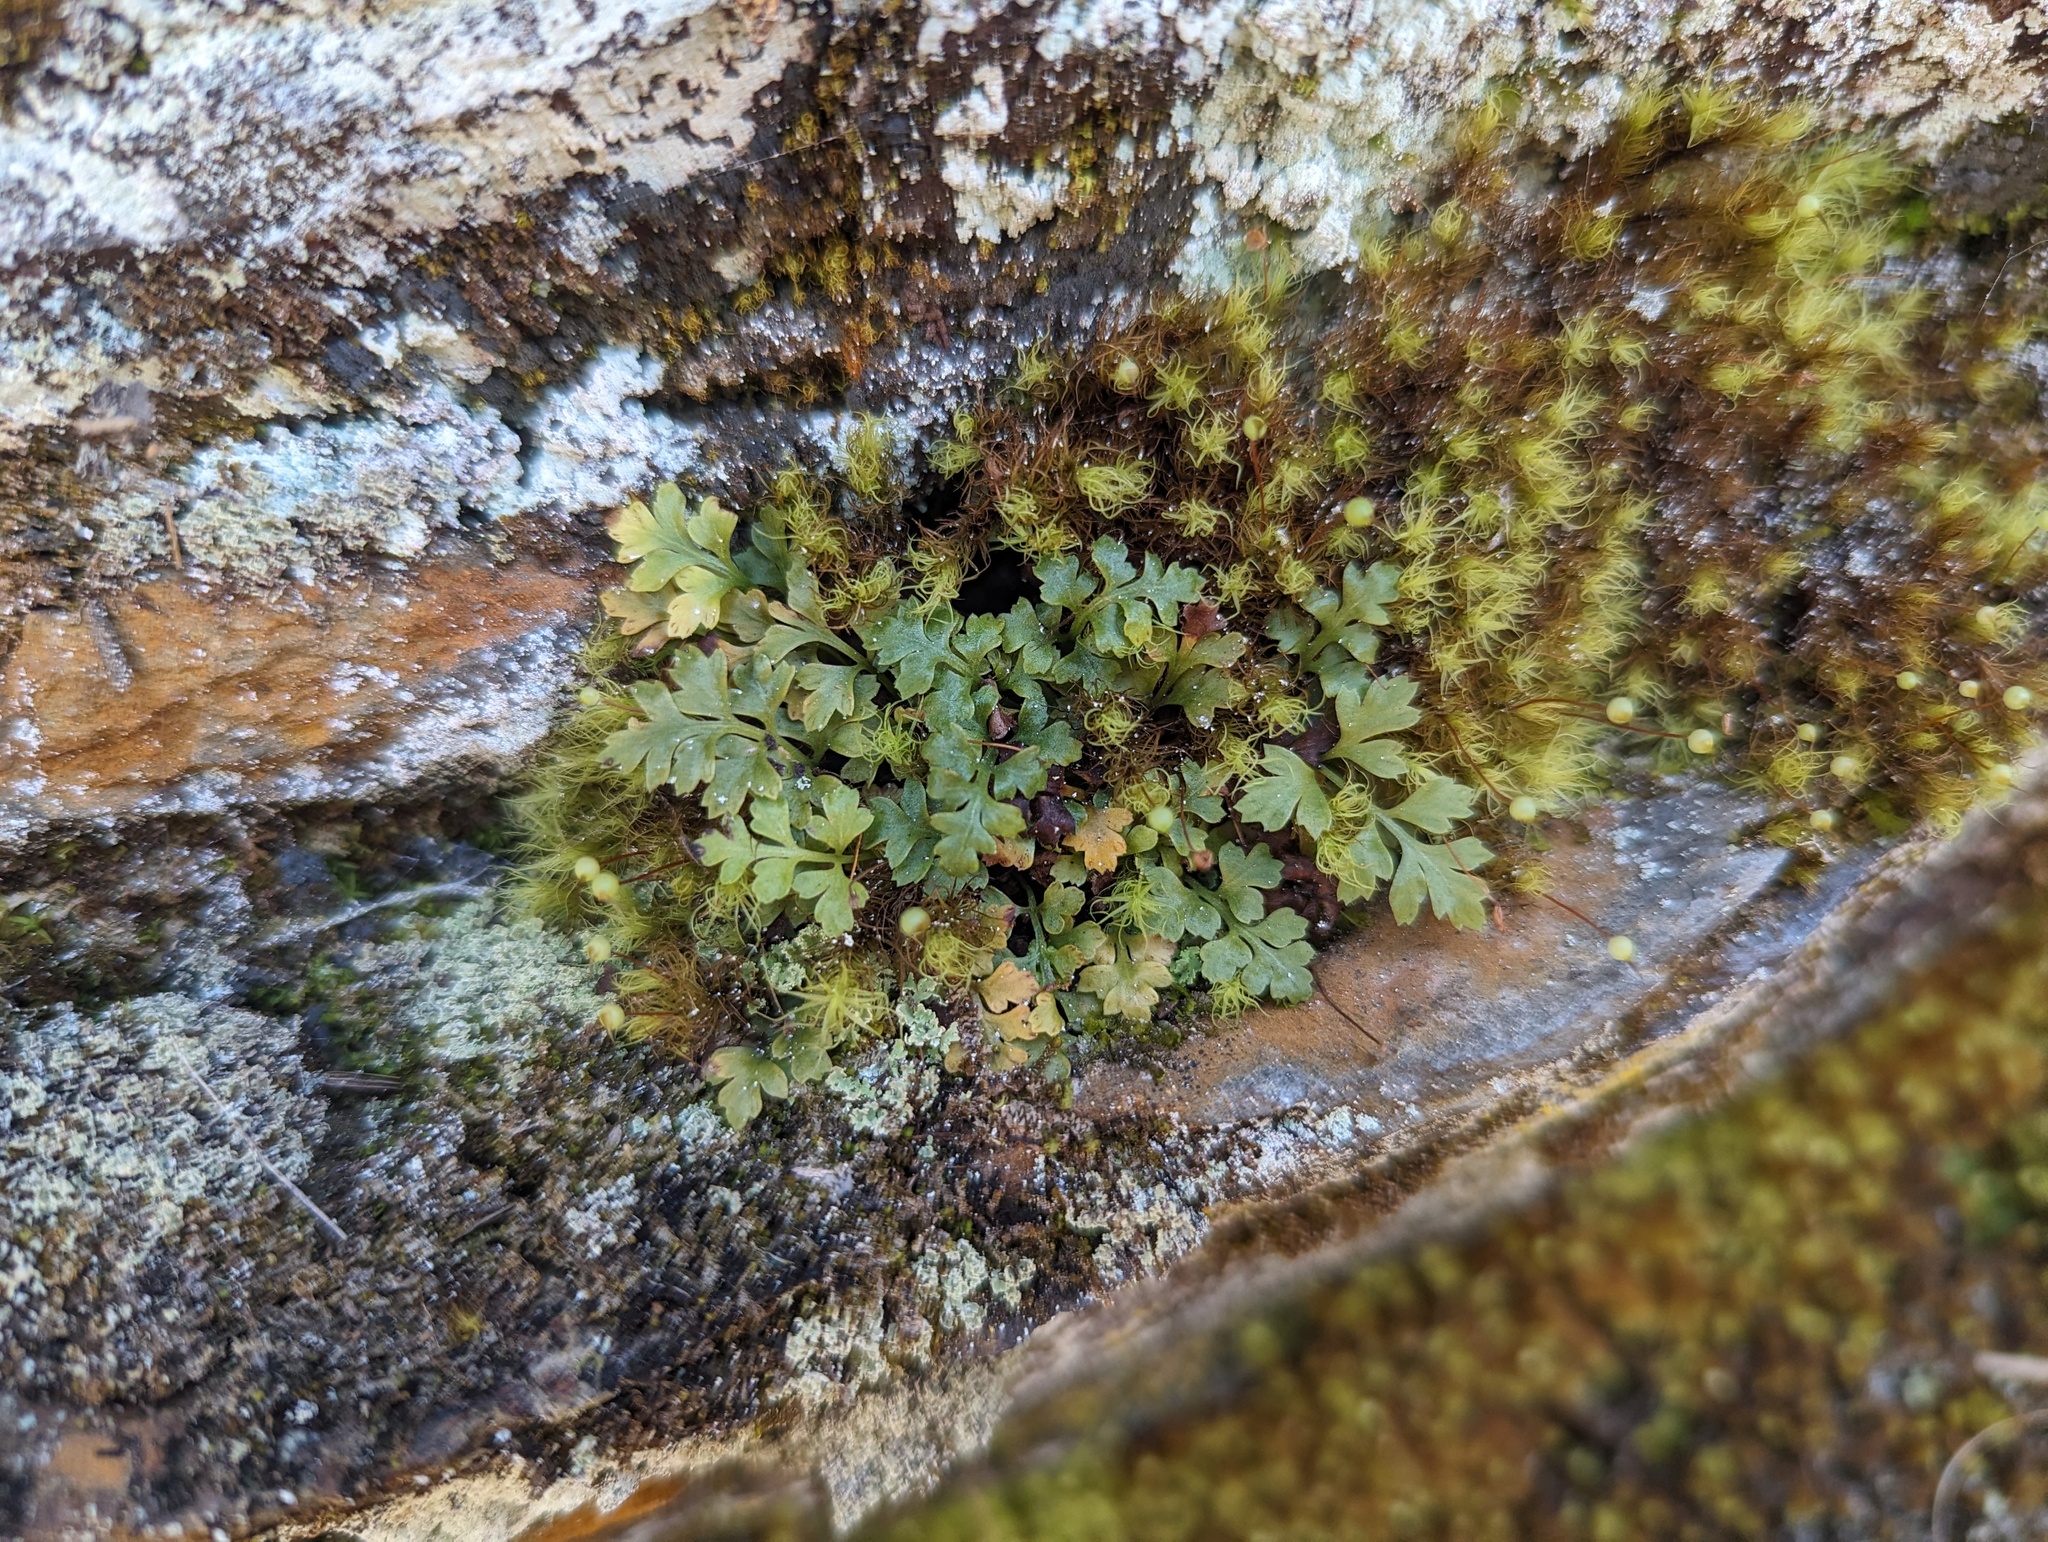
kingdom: Plantae
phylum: Tracheophyta
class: Polypodiopsida
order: Polypodiales
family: Aspleniaceae
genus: Asplenium
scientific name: Asplenium montanum
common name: Mountain spleenwort
